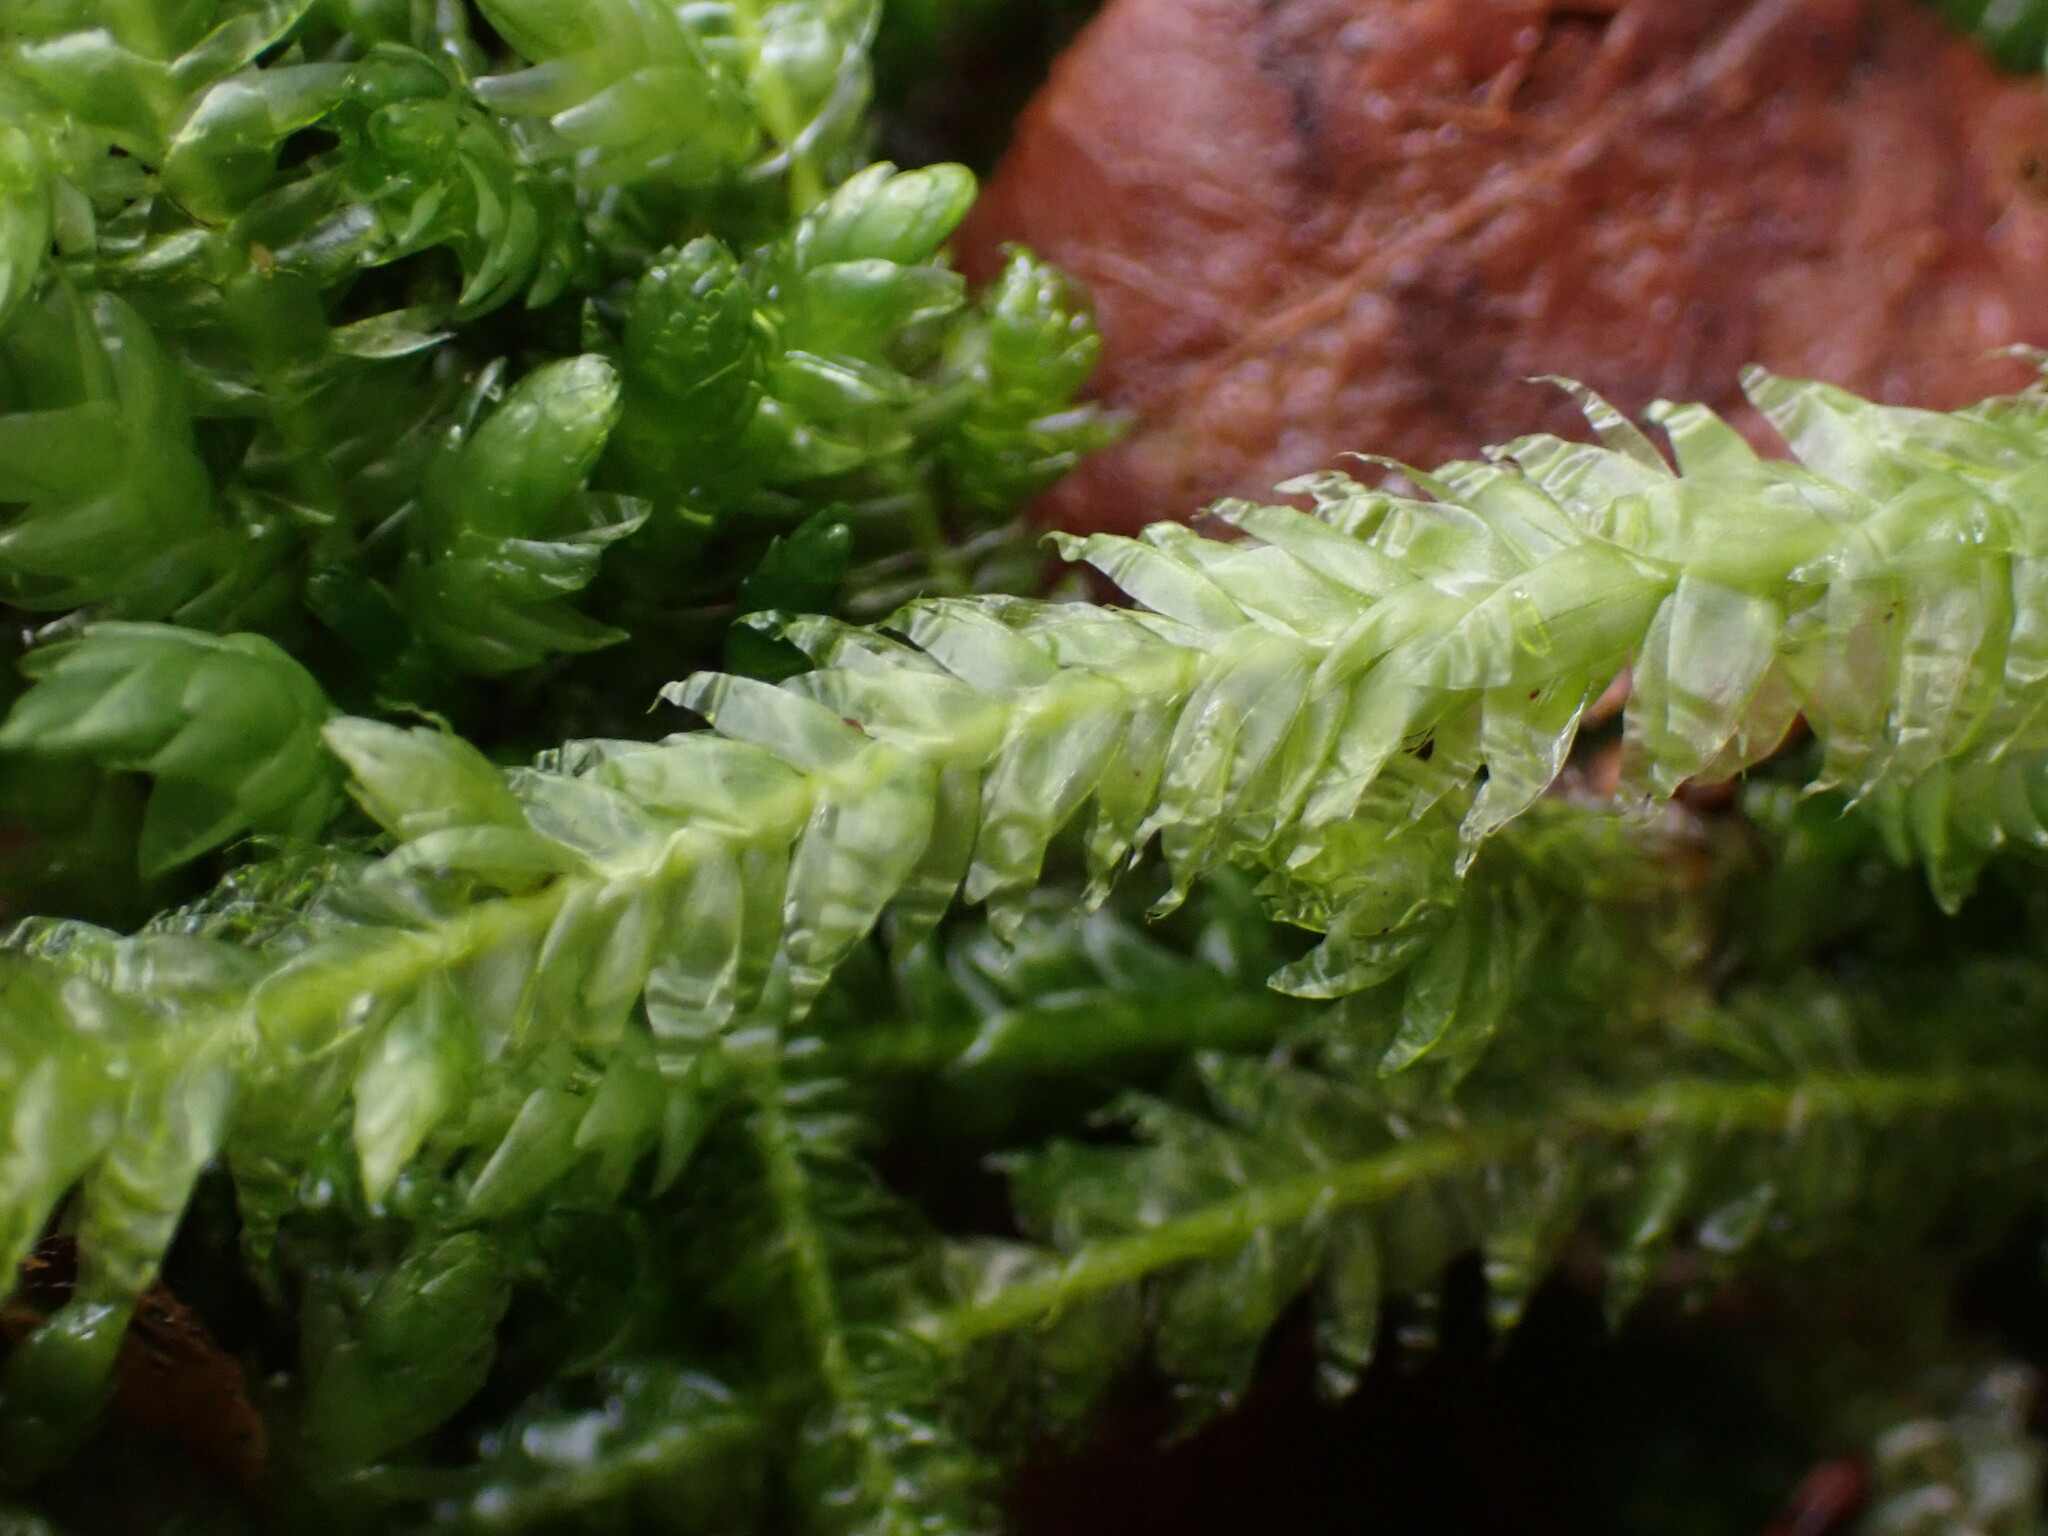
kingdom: Plantae
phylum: Bryophyta
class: Bryopsida
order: Hypnales
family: Plagiotheciaceae
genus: Plagiothecium
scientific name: Plagiothecium undulatum
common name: Waved silk-moss
